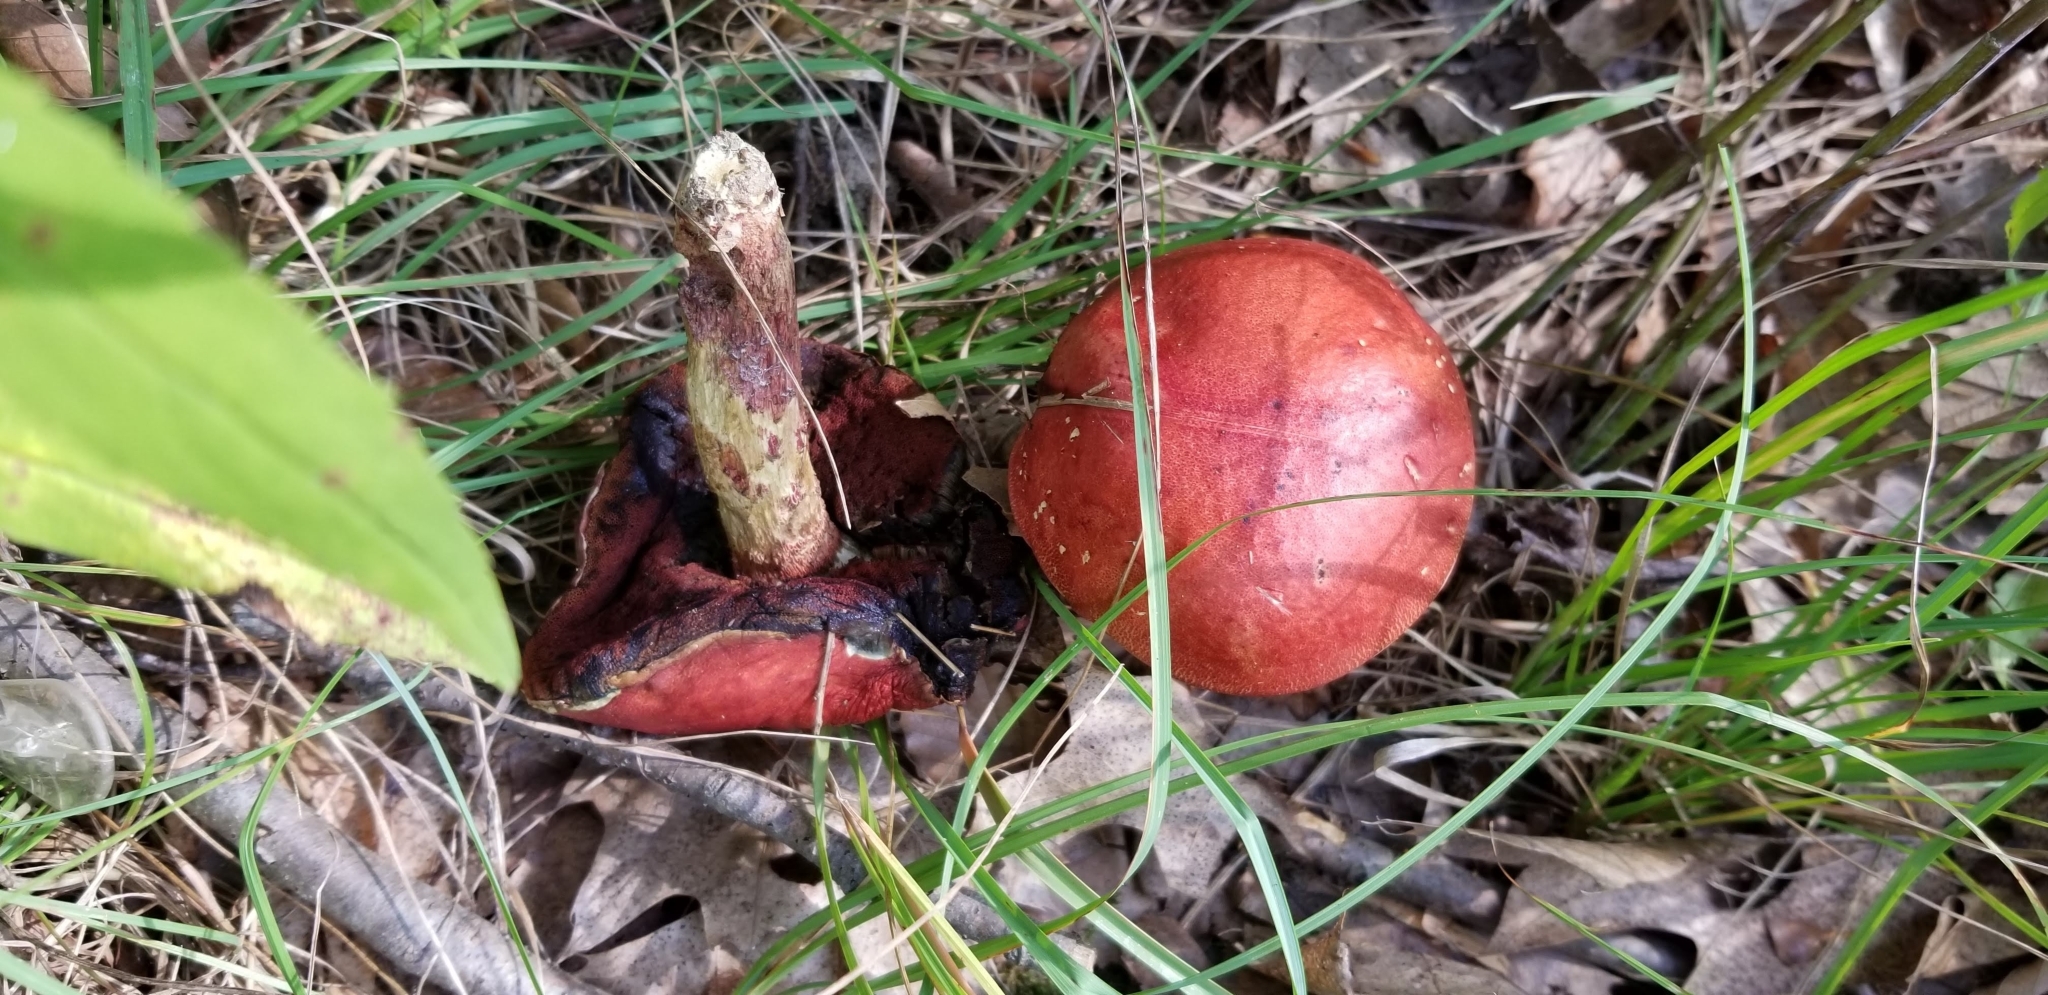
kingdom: Fungi
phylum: Basidiomycota
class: Agaricomycetes
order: Boletales
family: Boletaceae
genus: Butyriboletus
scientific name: Butyriboletus frostii
